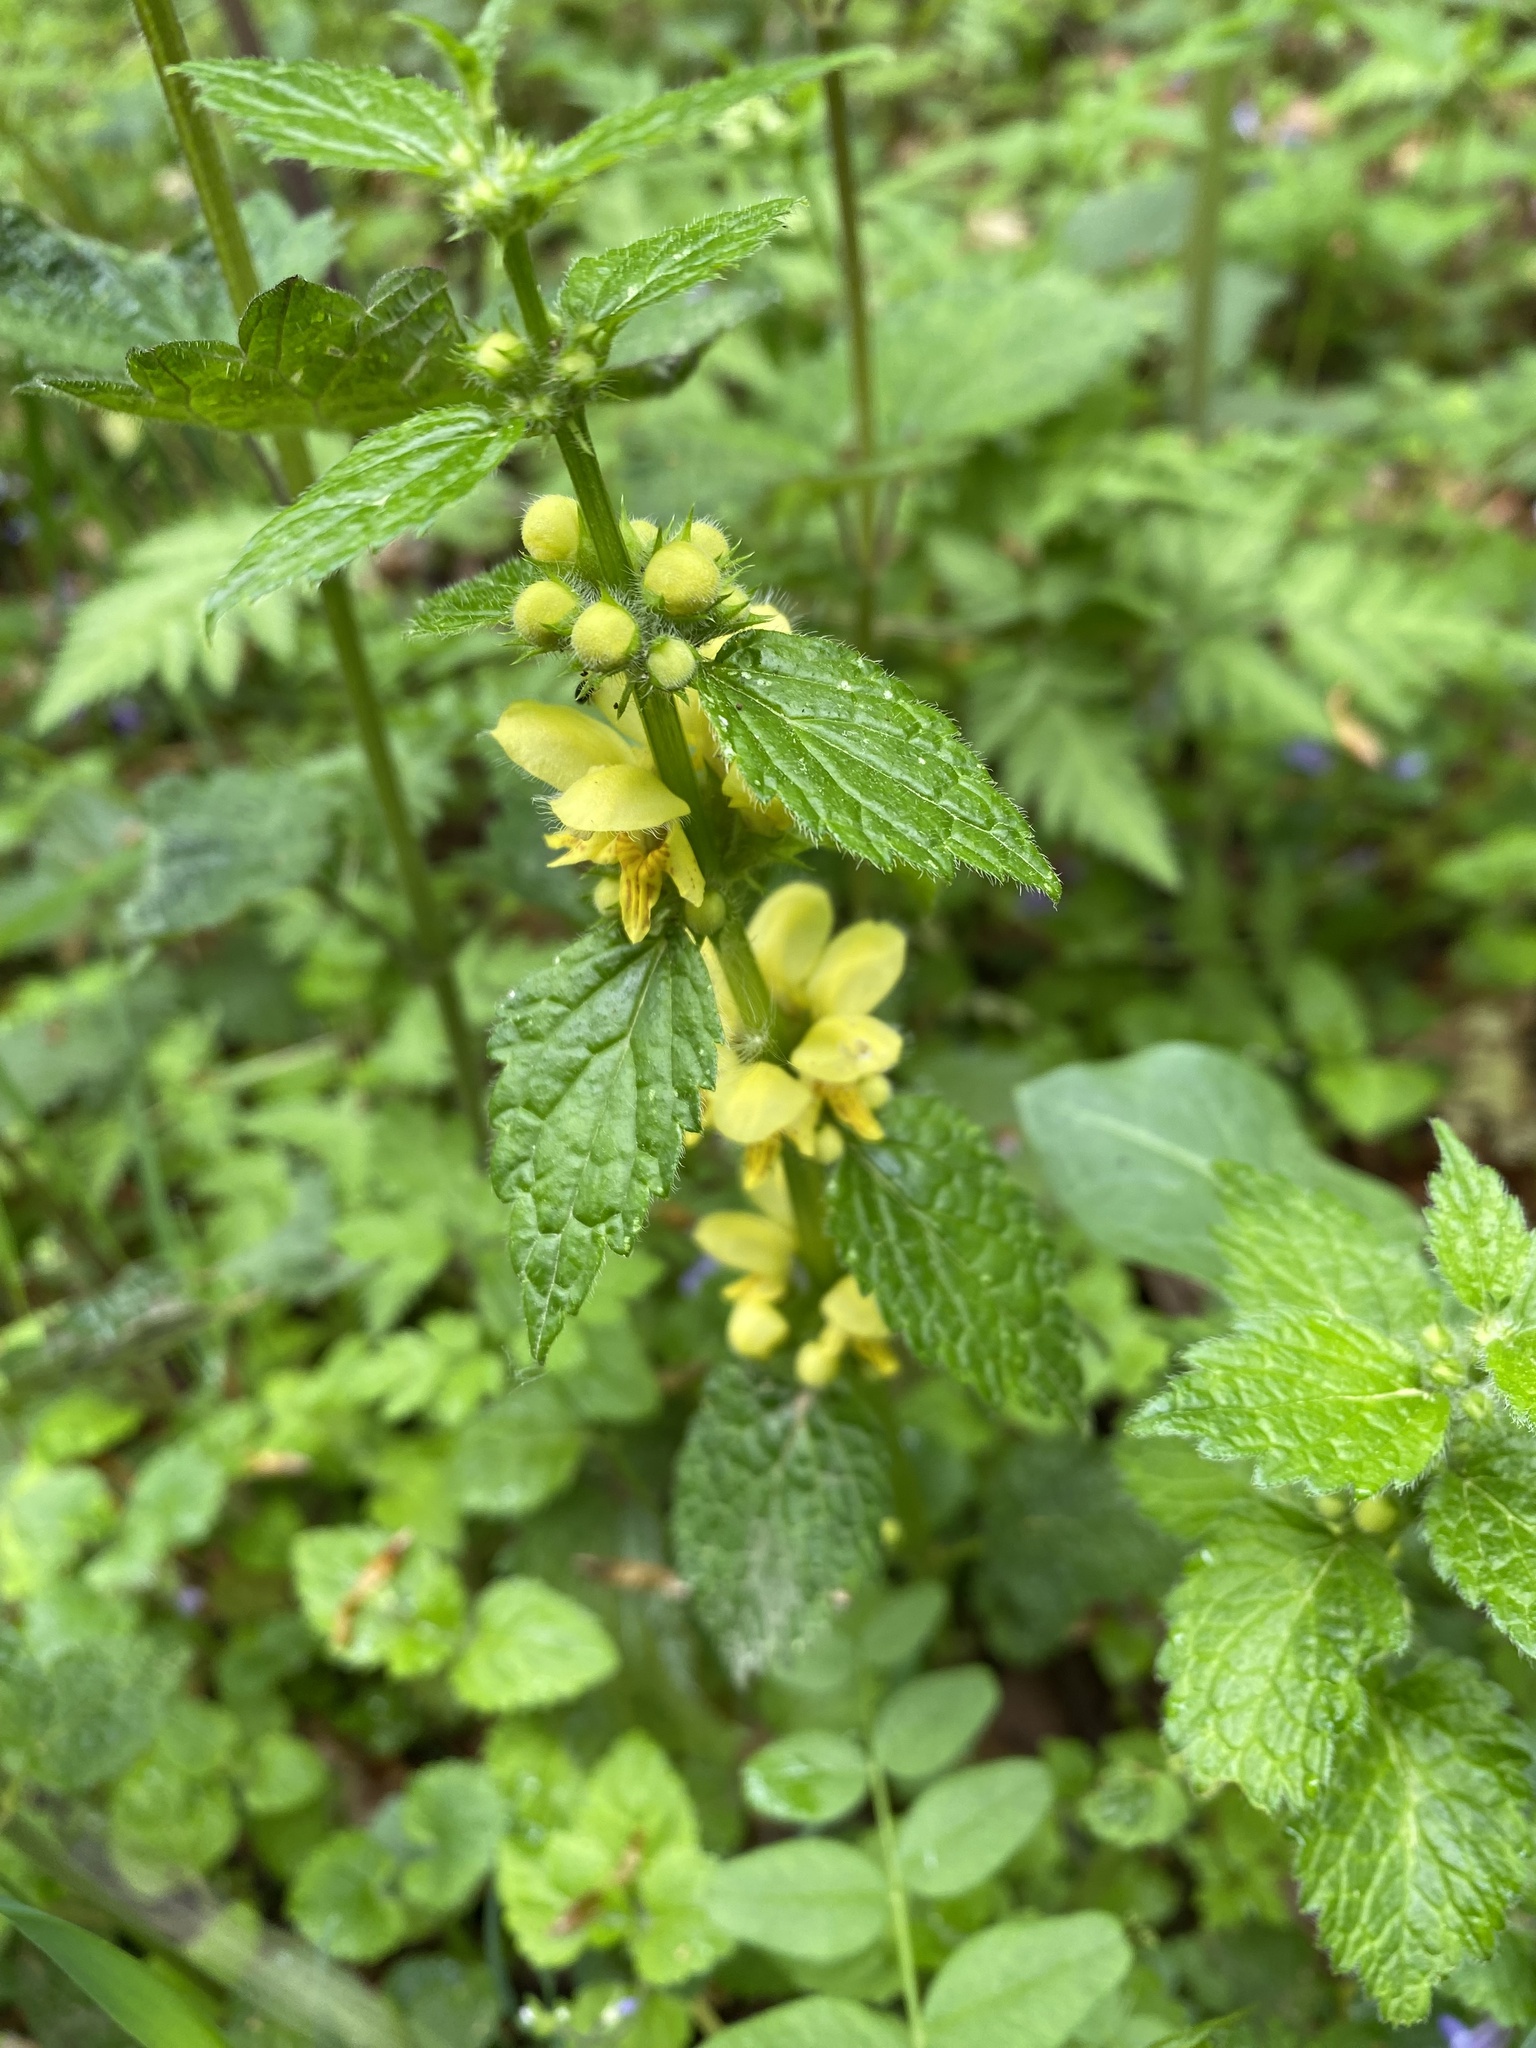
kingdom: Plantae
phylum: Tracheophyta
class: Magnoliopsida
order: Lamiales
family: Lamiaceae
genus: Lamium
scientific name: Lamium galeobdolon
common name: Yellow archangel
